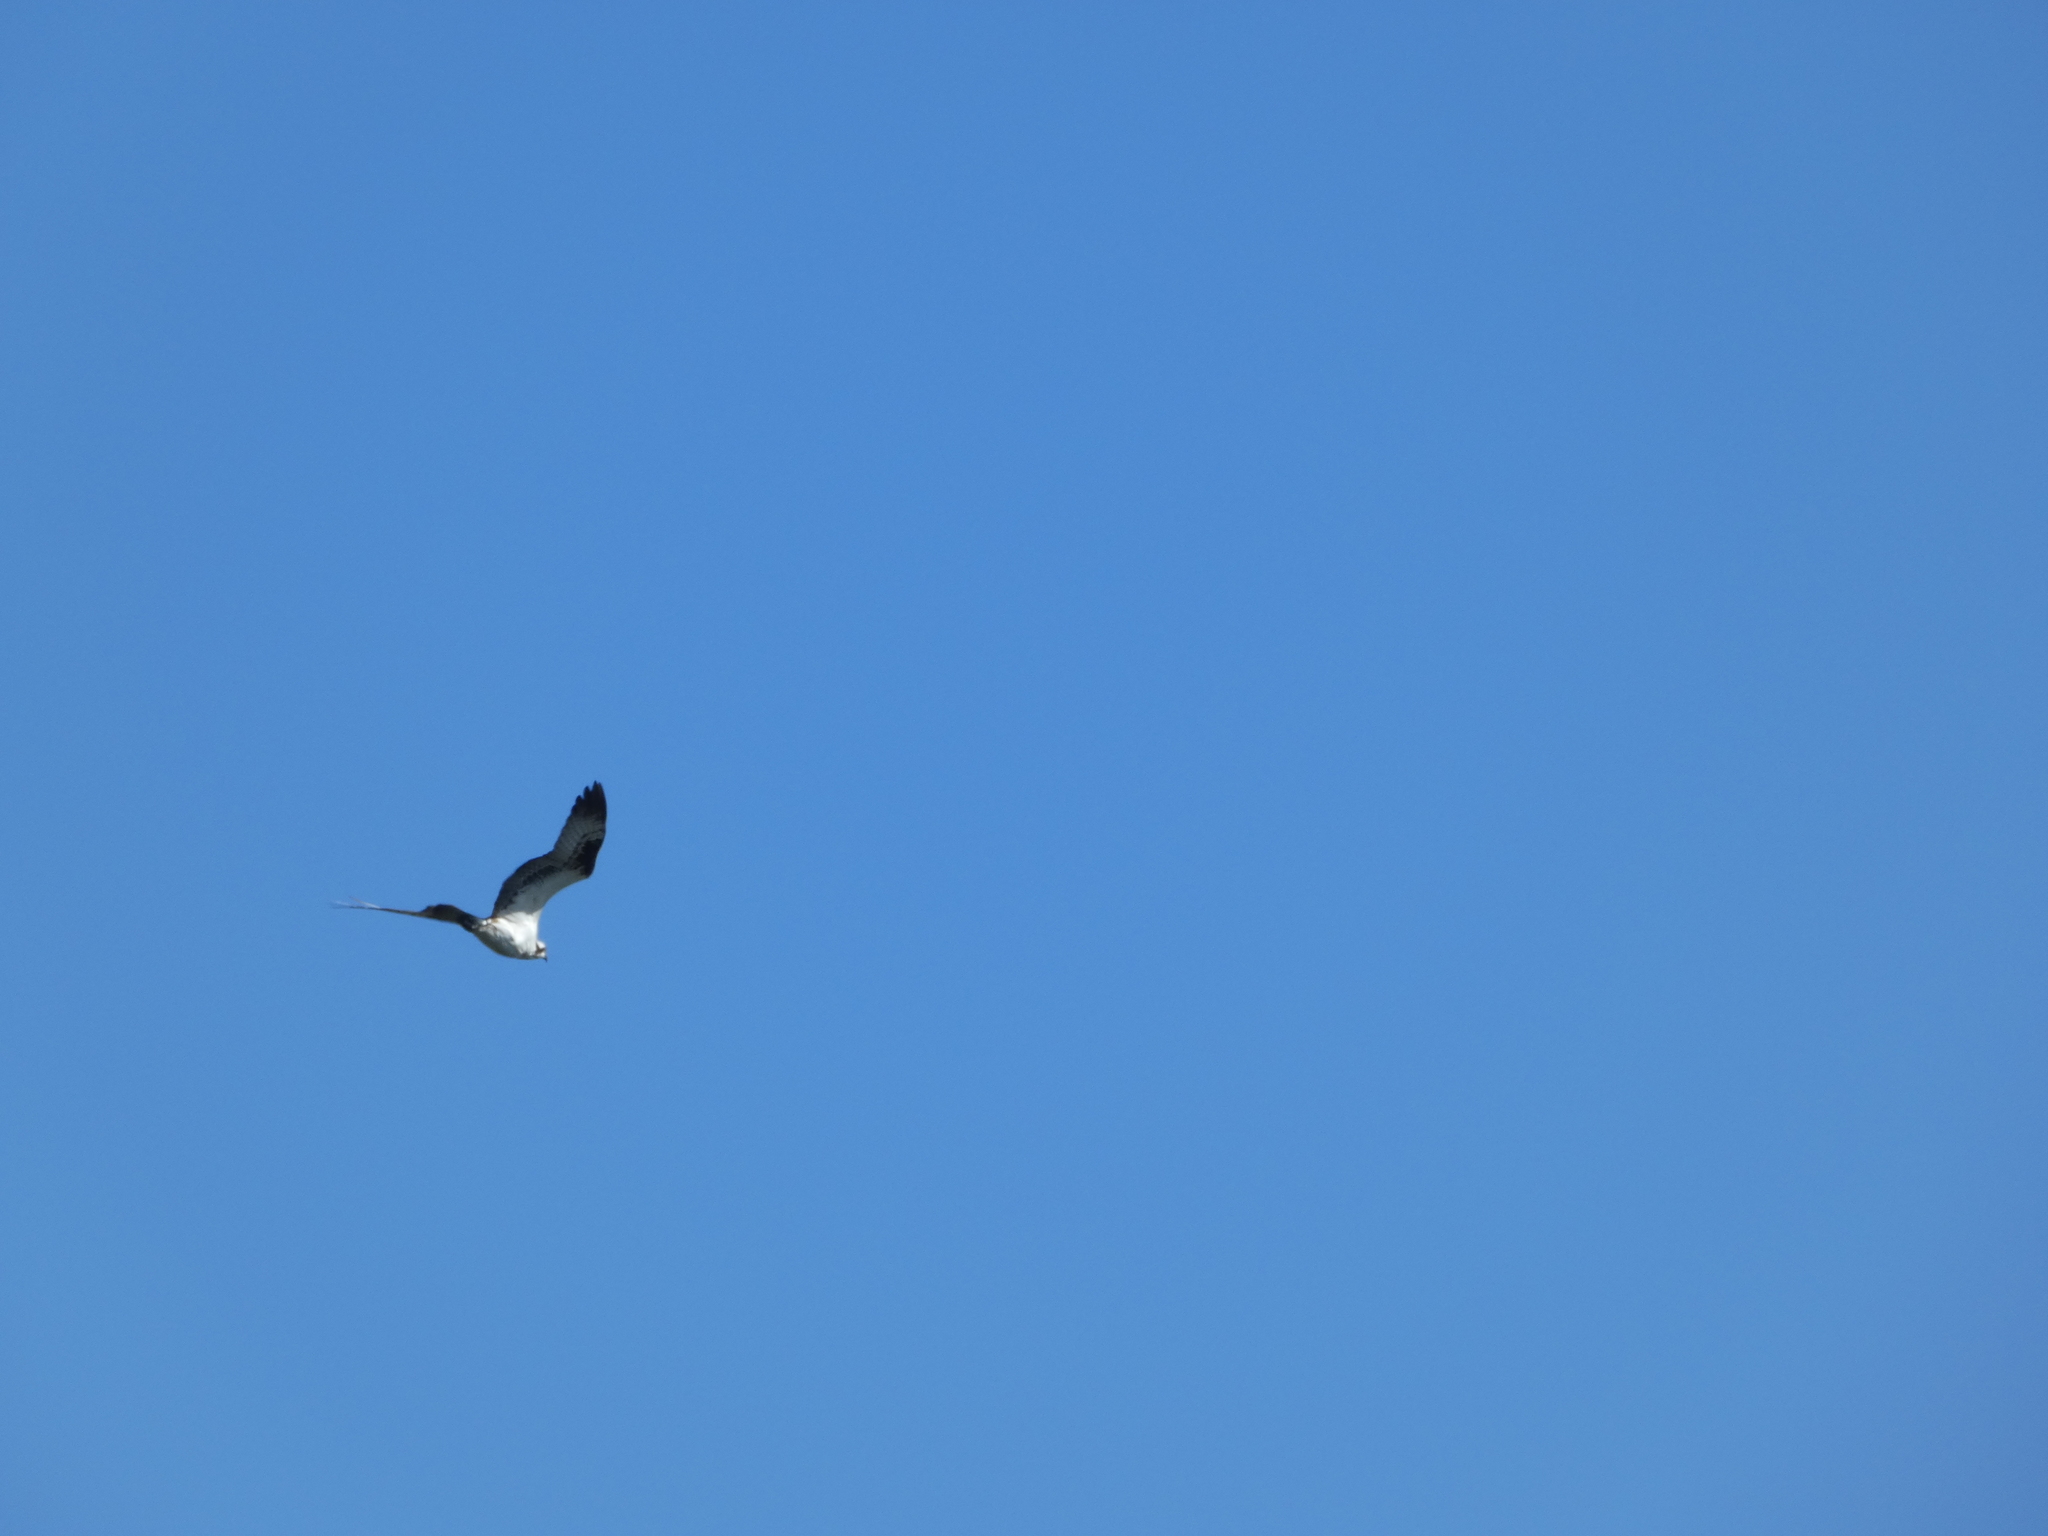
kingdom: Animalia
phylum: Chordata
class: Aves
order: Accipitriformes
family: Pandionidae
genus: Pandion
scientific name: Pandion haliaetus
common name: Osprey
